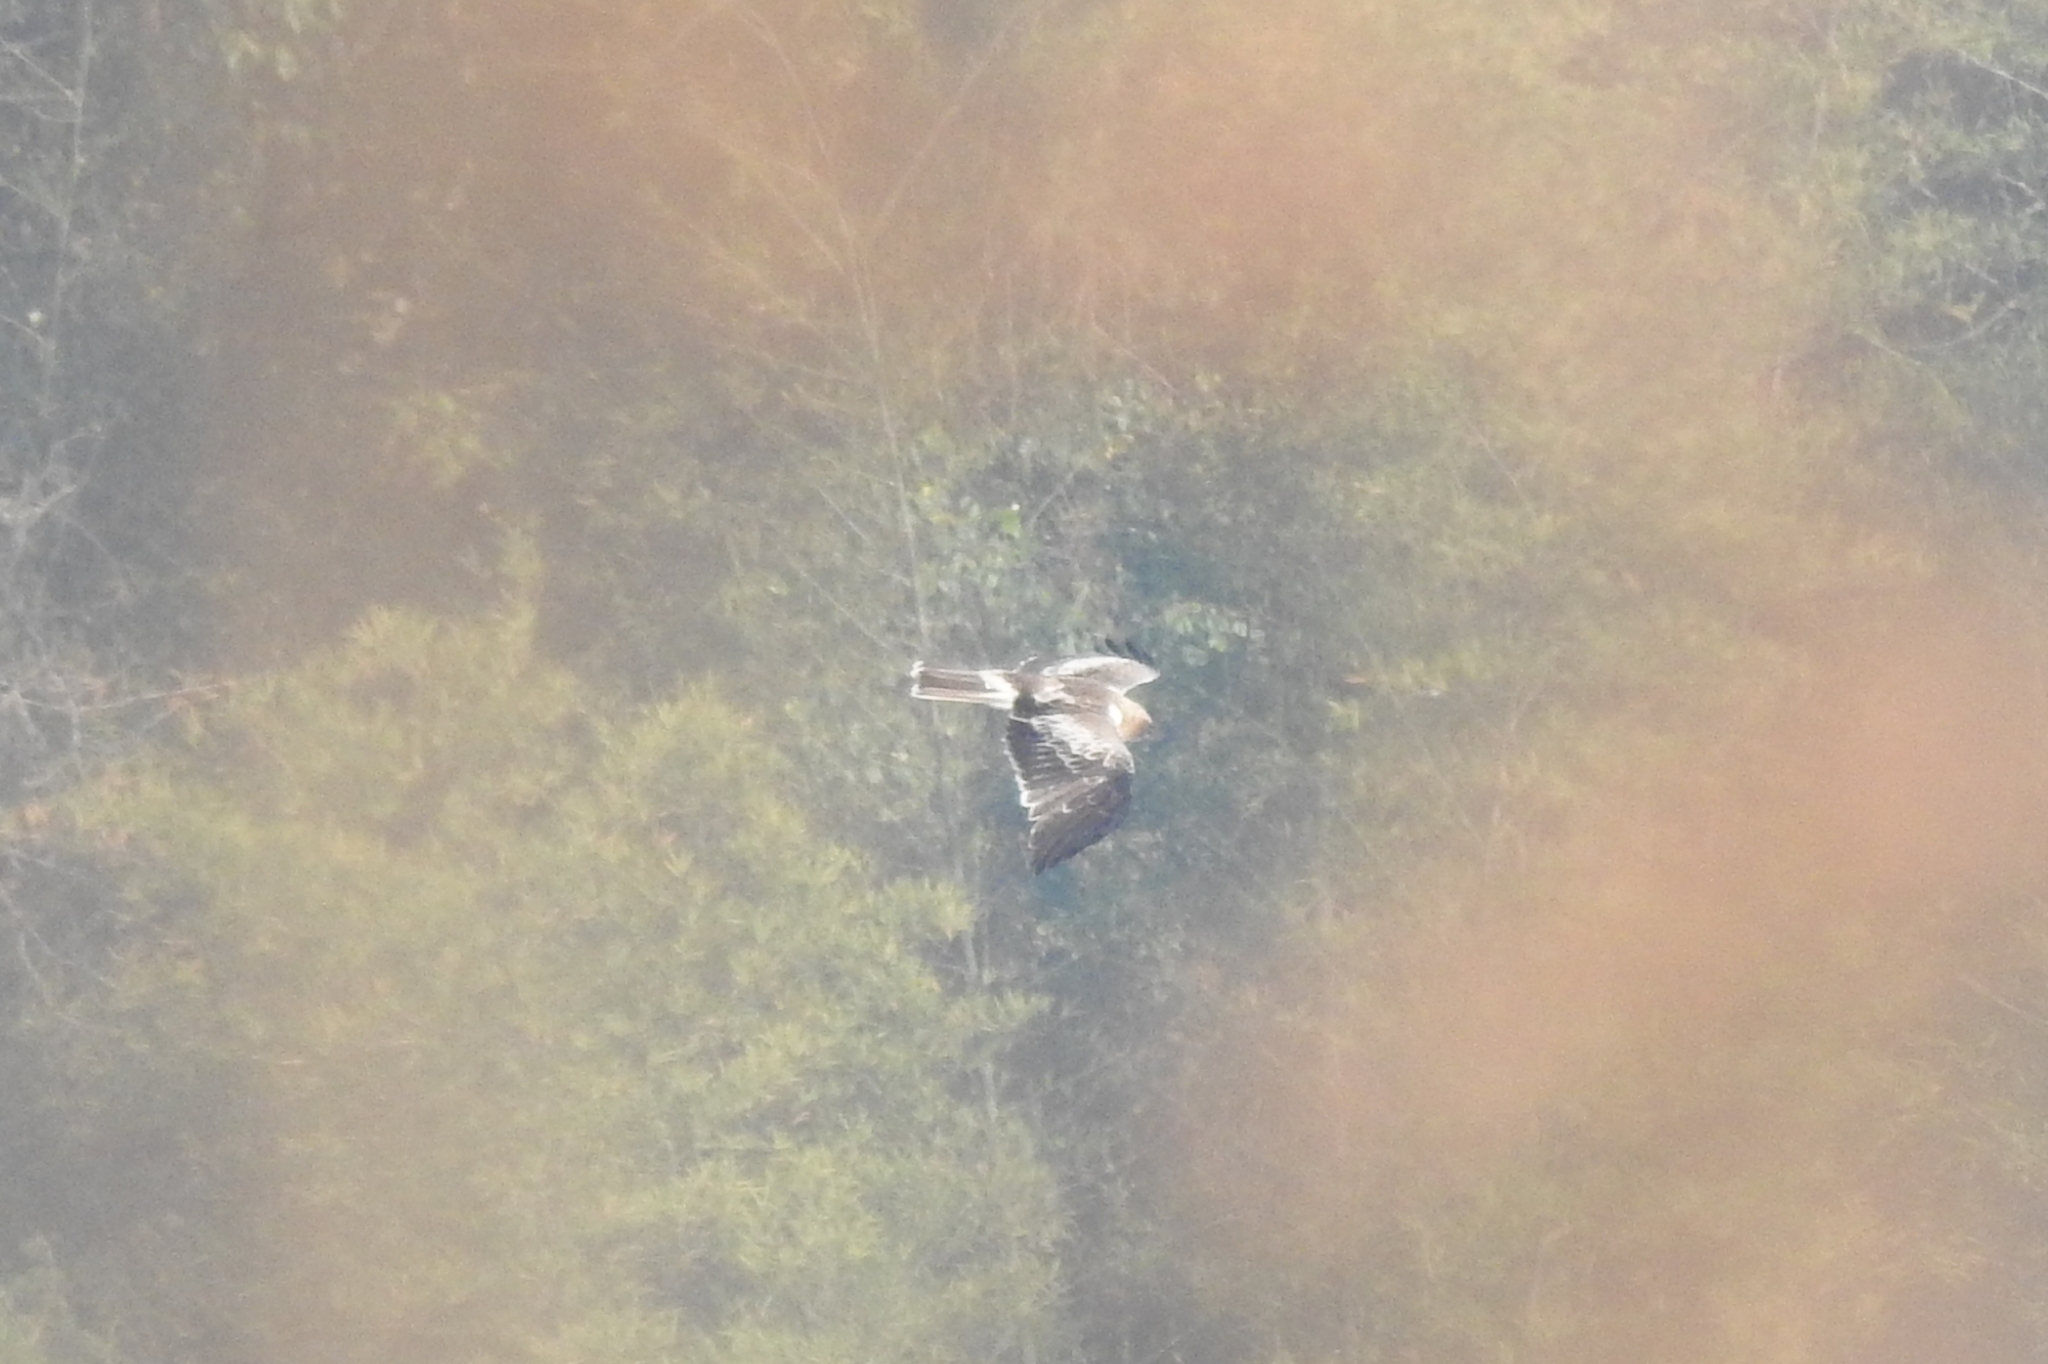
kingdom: Animalia
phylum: Chordata
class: Aves
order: Accipitriformes
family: Accipitridae
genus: Hieraaetus
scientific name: Hieraaetus pennatus
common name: Booted eagle
